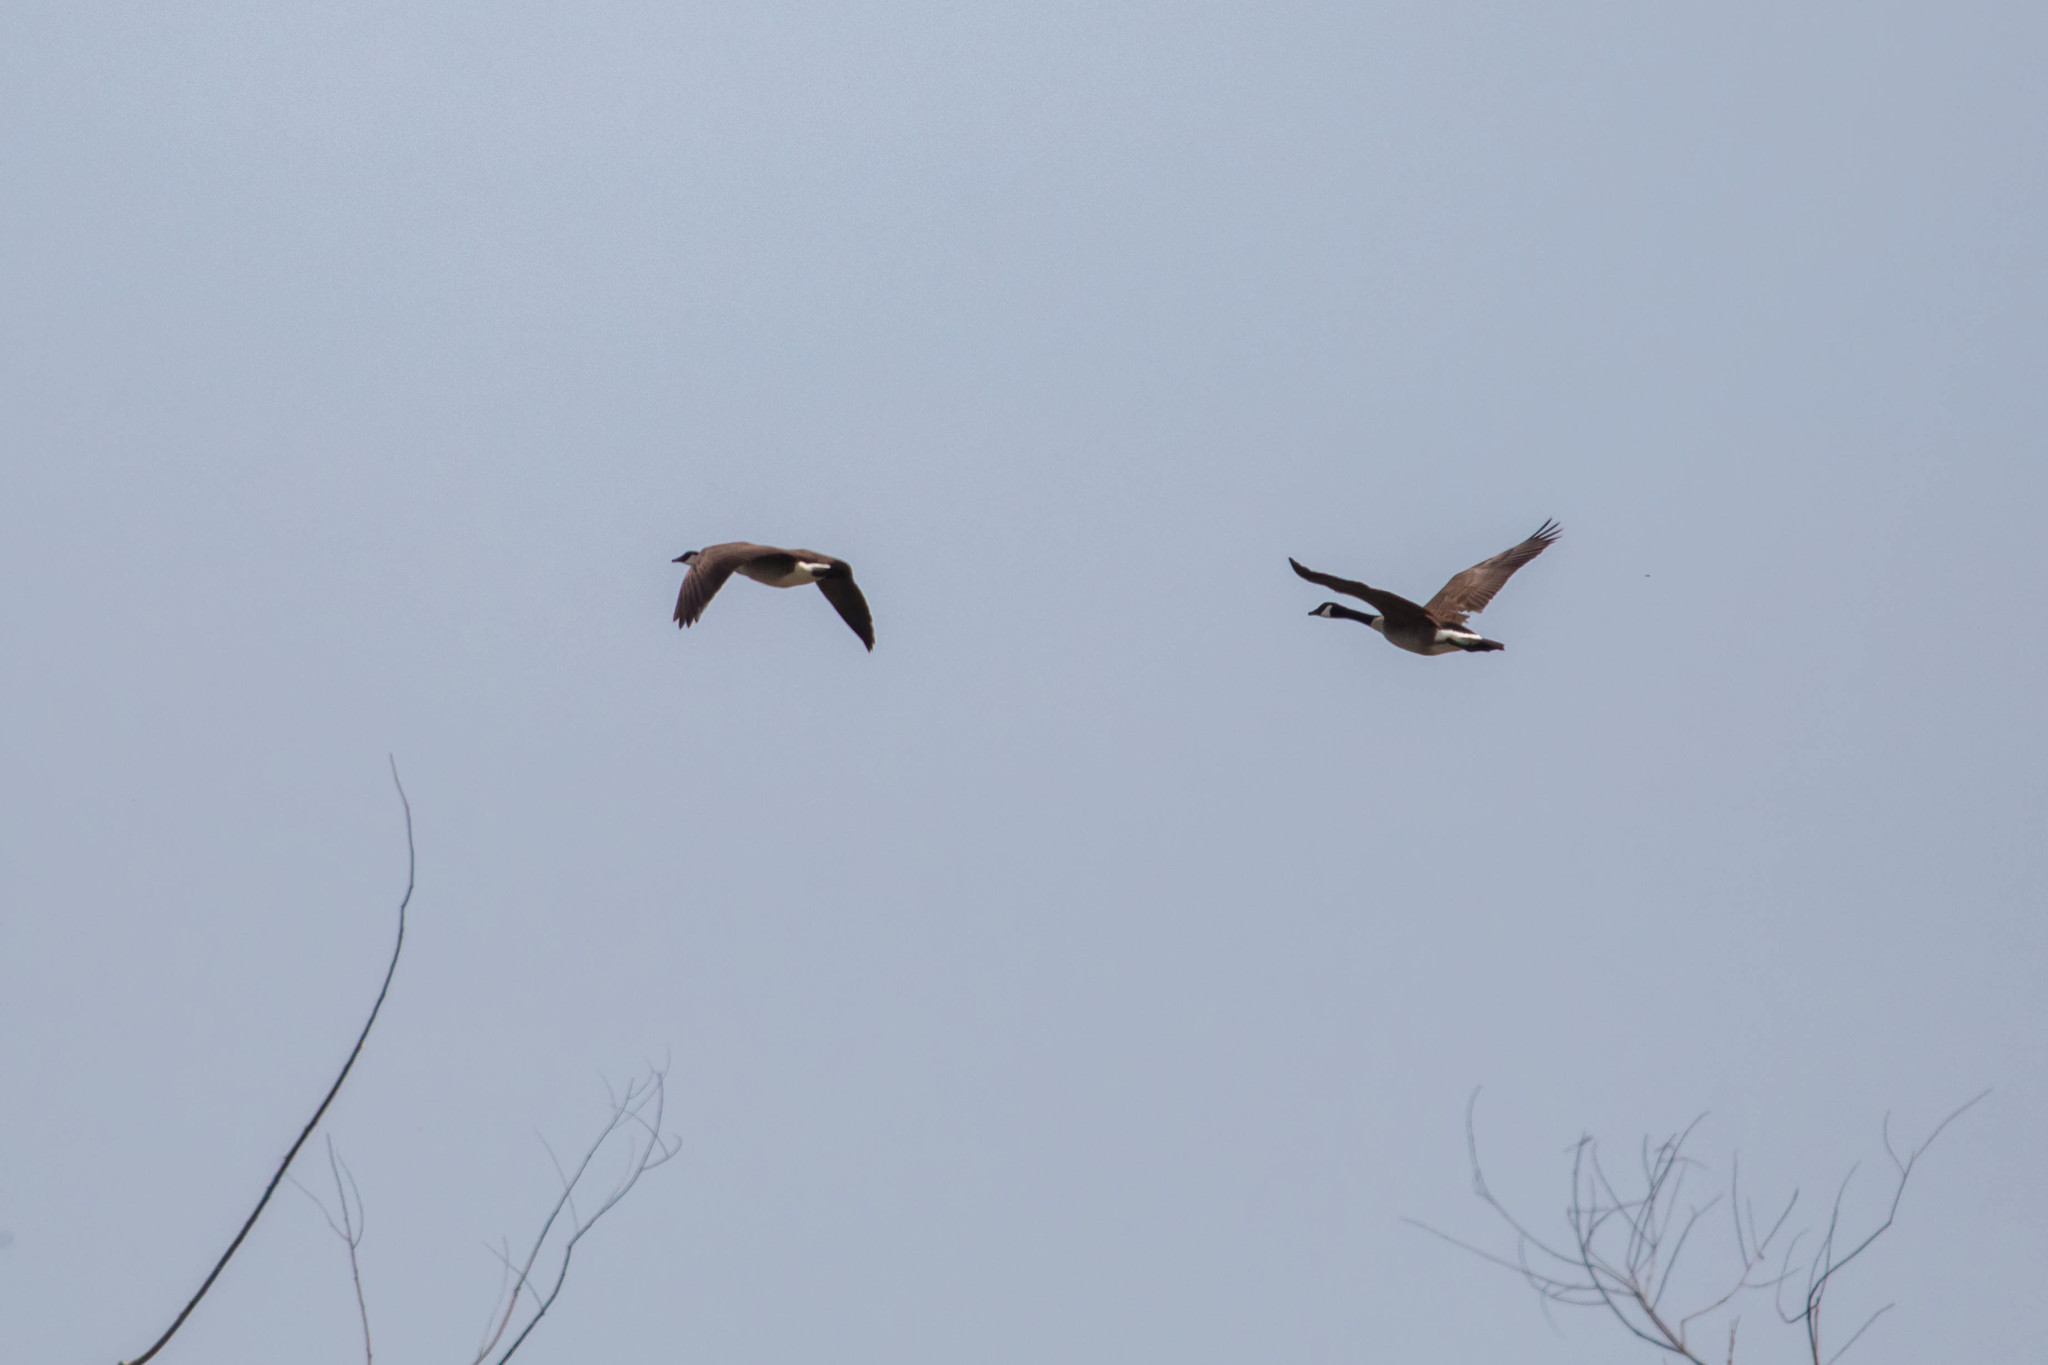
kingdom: Animalia
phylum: Chordata
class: Aves
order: Anseriformes
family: Anatidae
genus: Branta
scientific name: Branta canadensis
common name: Canada goose
